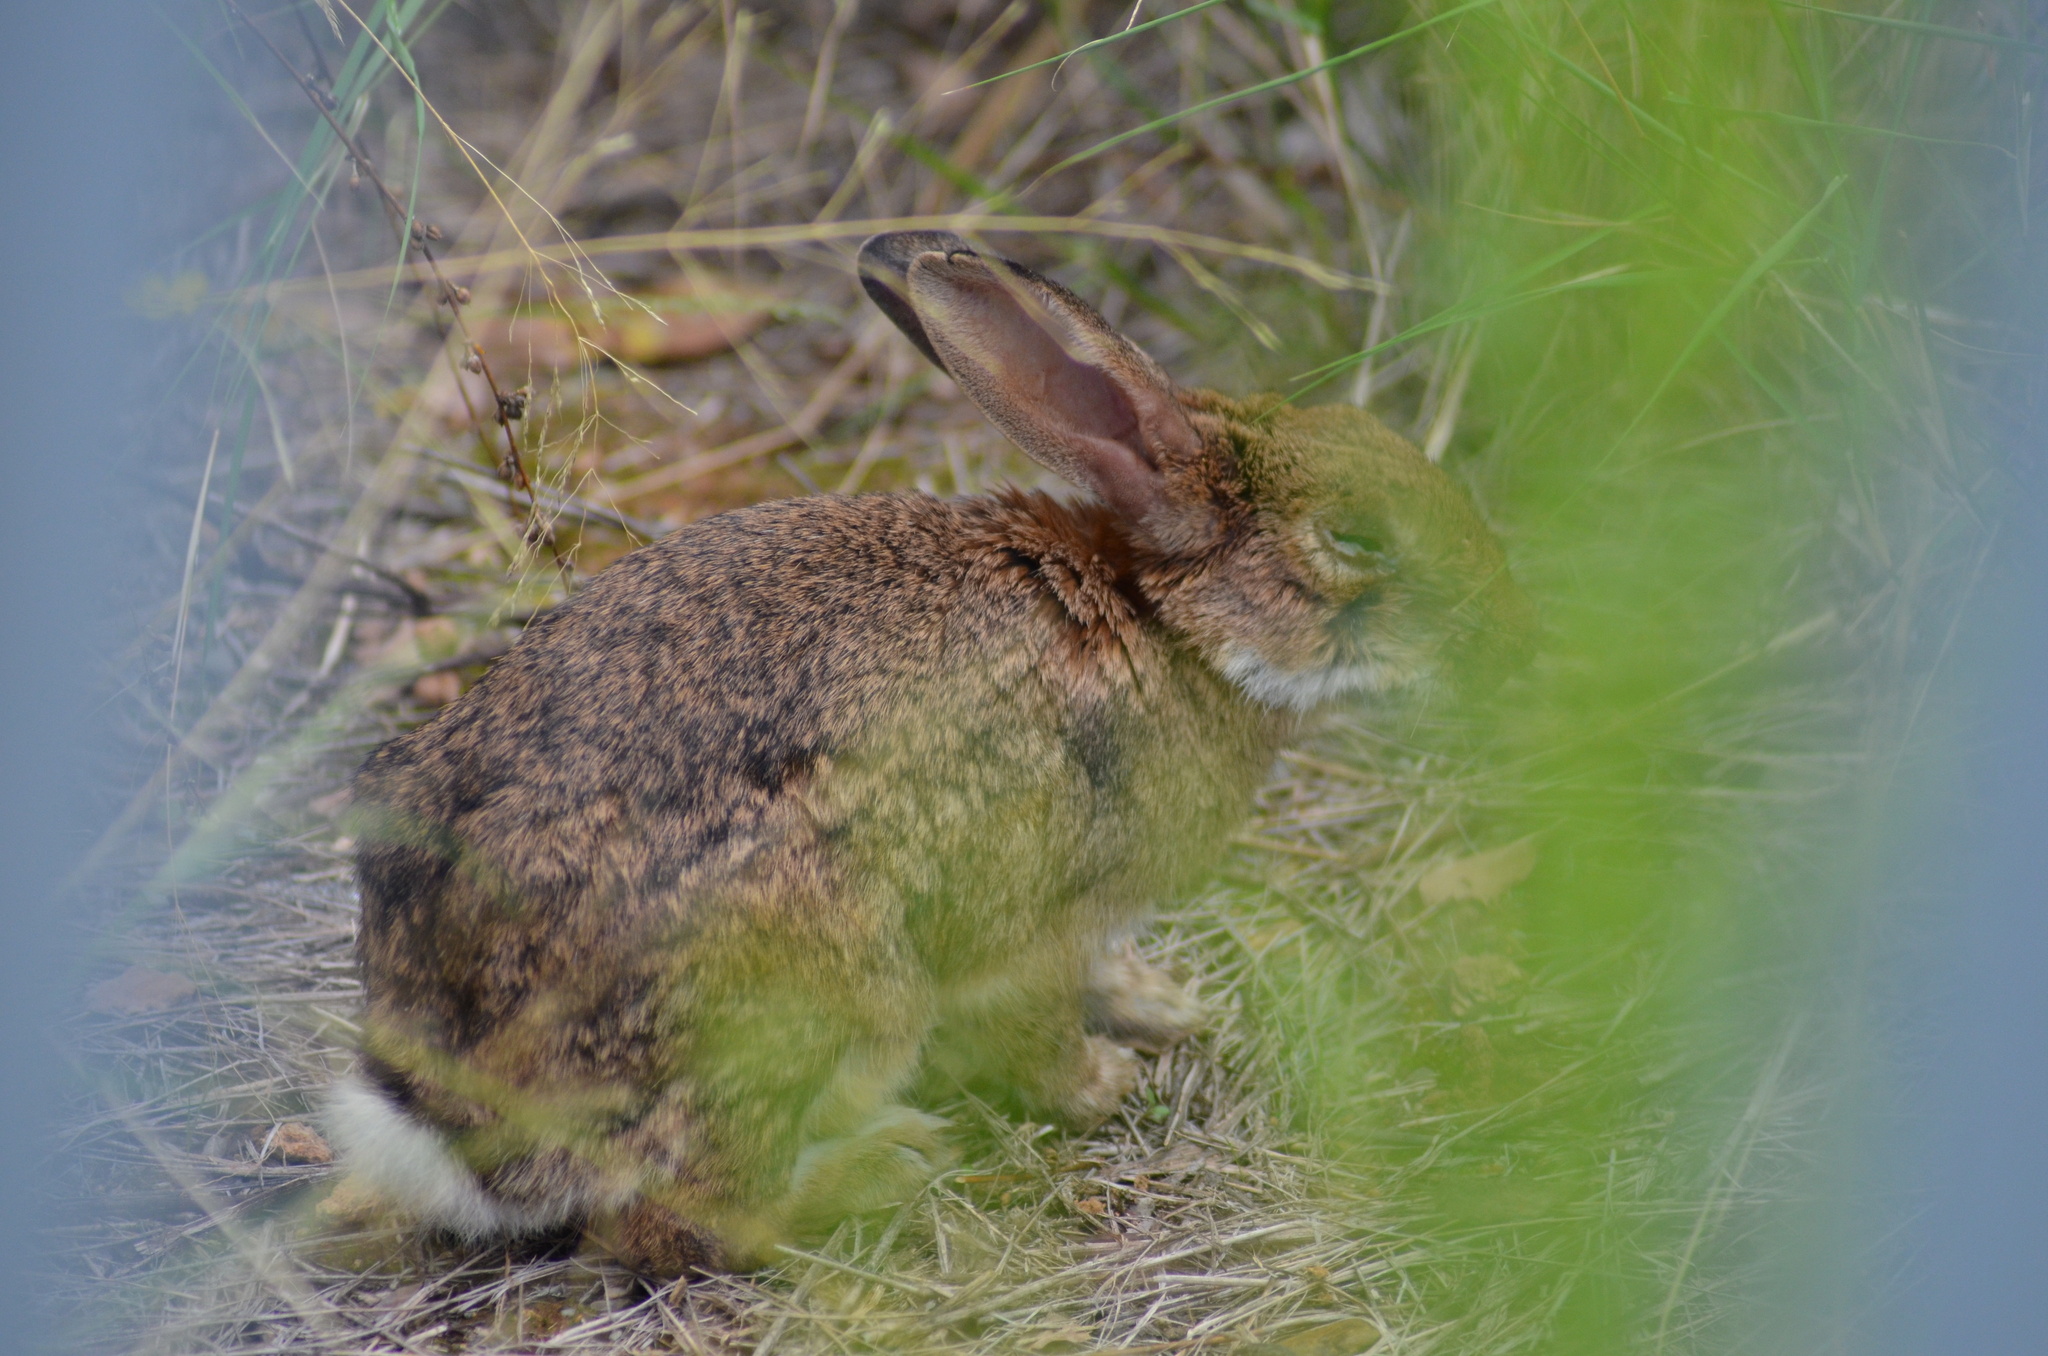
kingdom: Animalia
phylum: Chordata
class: Mammalia
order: Lagomorpha
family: Leporidae
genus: Oryctolagus
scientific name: Oryctolagus cuniculus
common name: European rabbit
